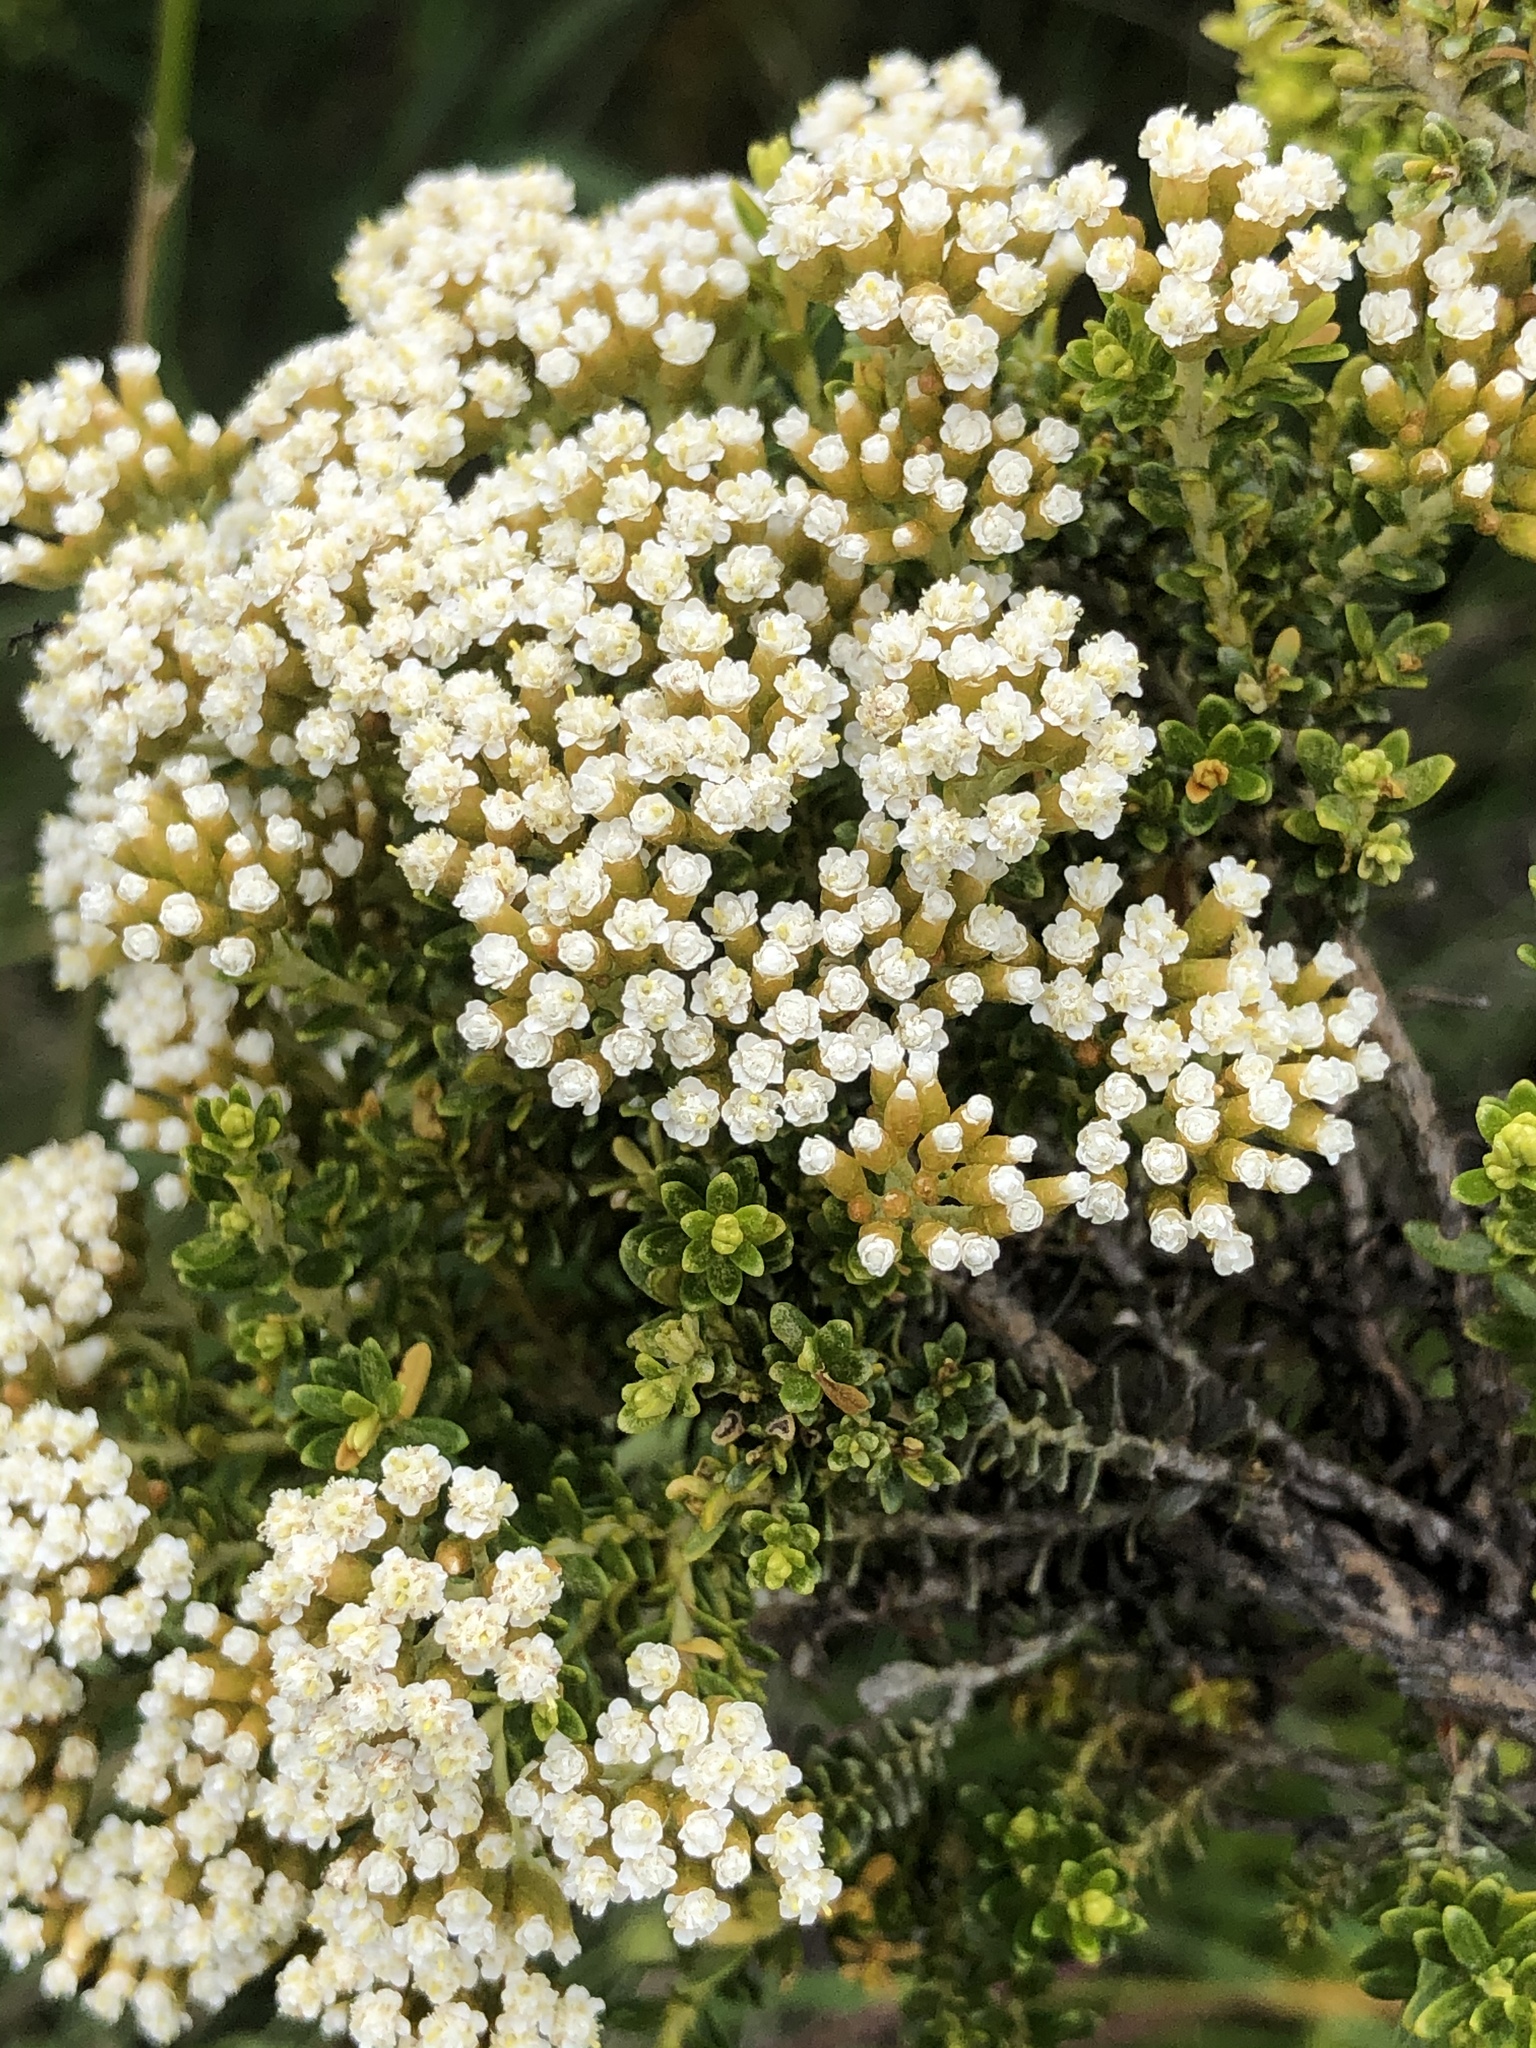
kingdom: Plantae
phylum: Tracheophyta
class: Magnoliopsida
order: Asterales
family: Asteraceae
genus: Ozothamnus
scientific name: Ozothamnus leptophyllus
